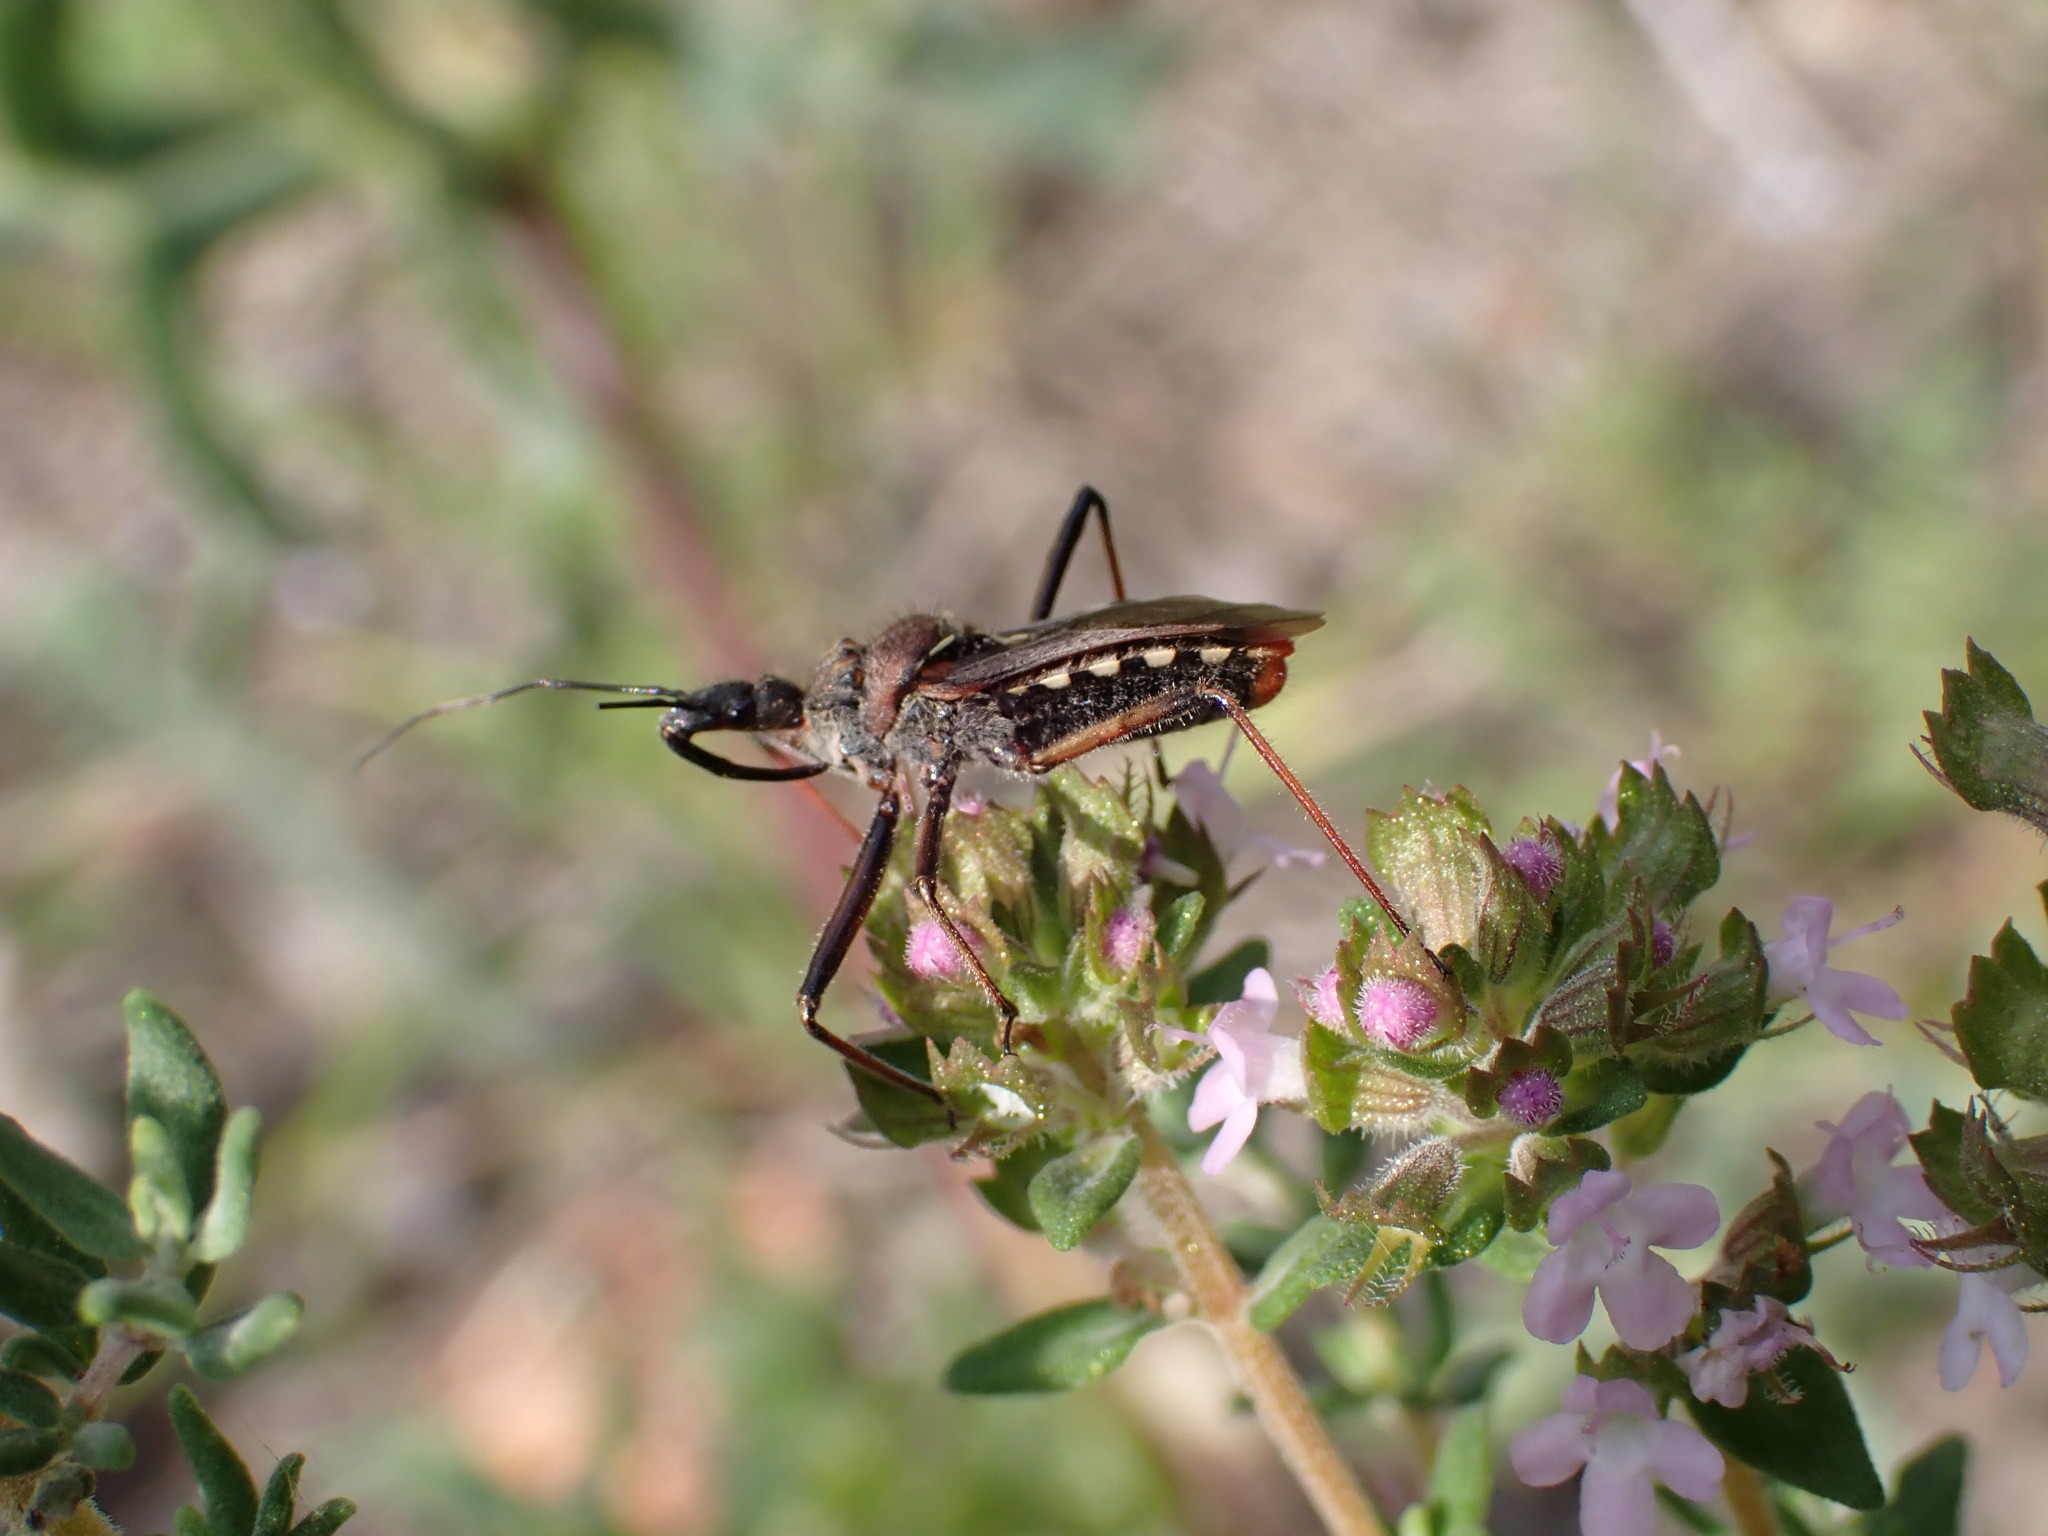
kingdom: Animalia
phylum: Arthropoda
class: Insecta
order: Hemiptera
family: Reduviidae
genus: Rhynocoris
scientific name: Rhynocoris erythropus
